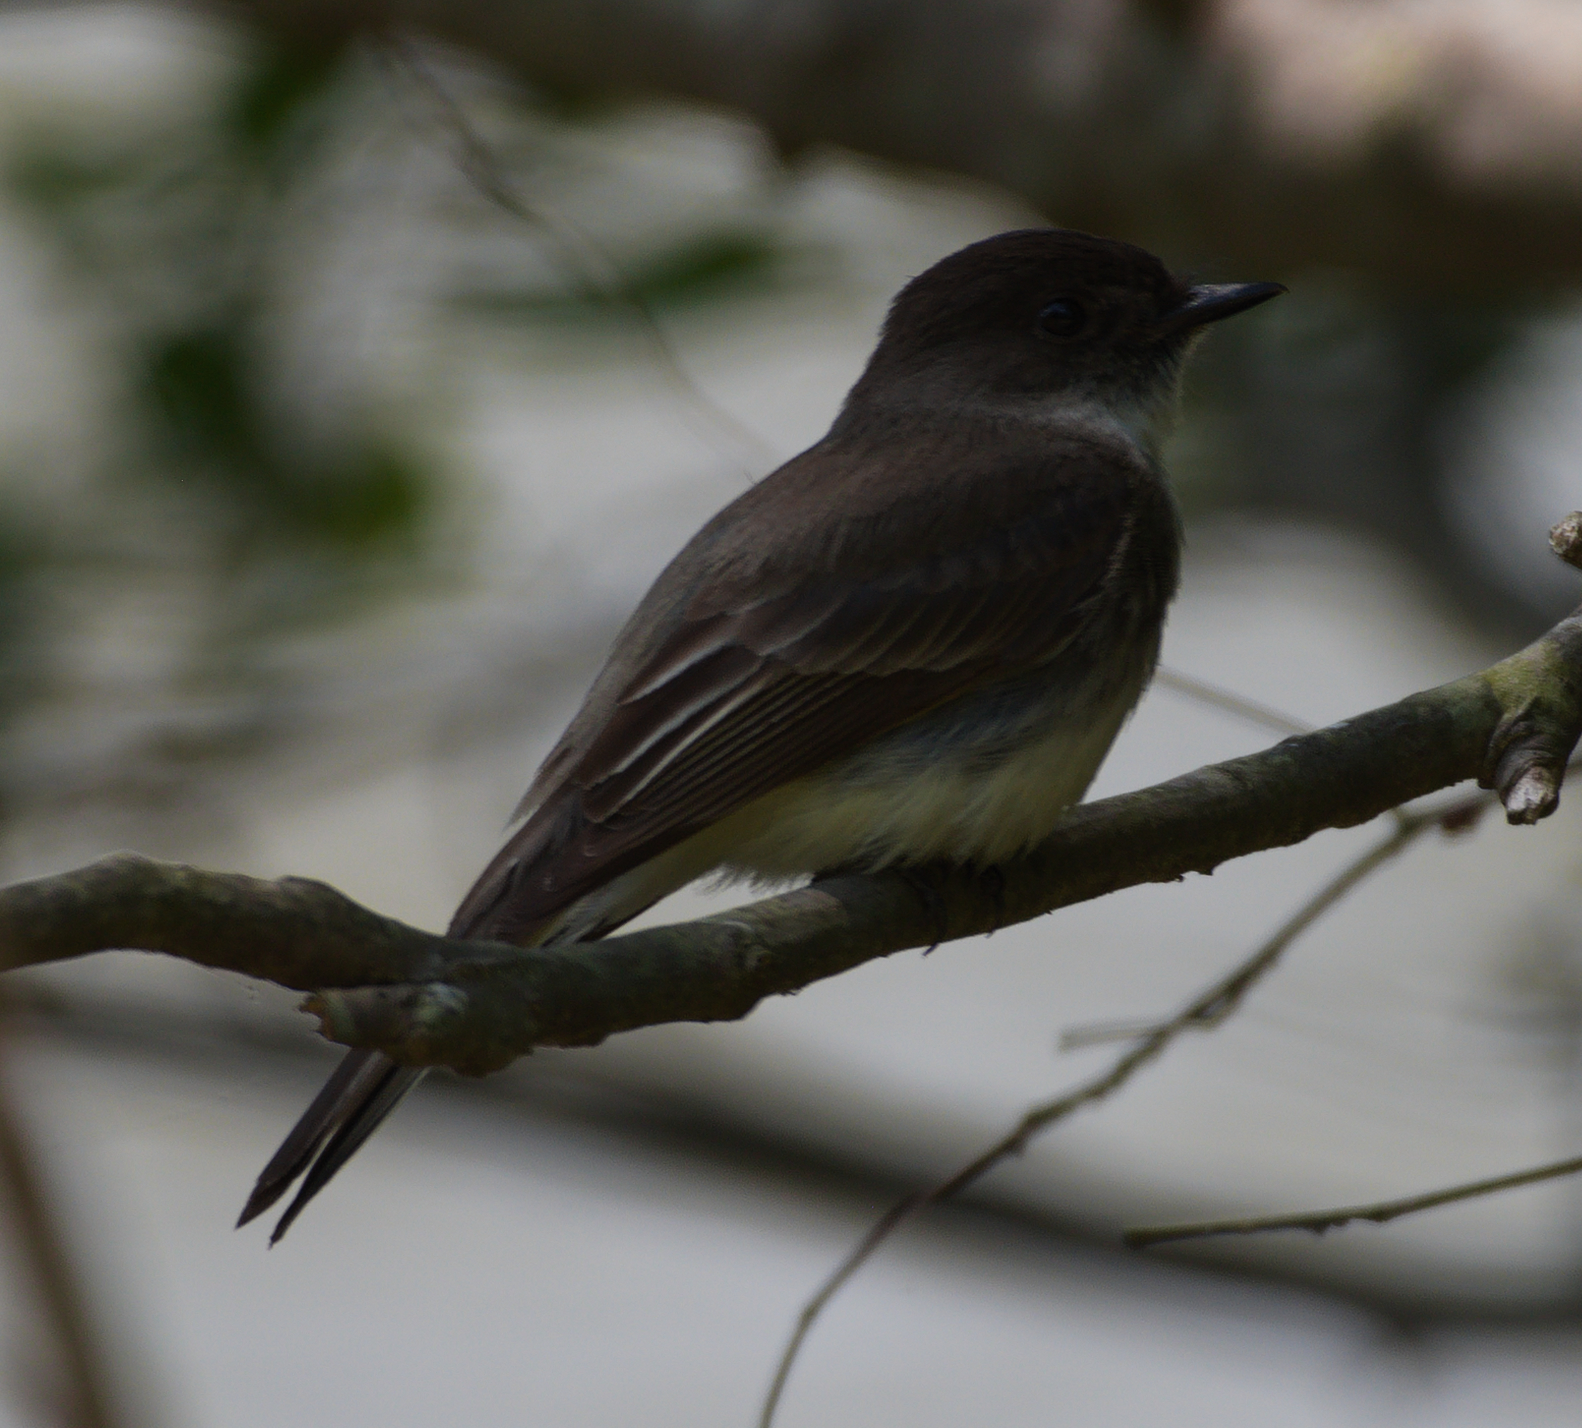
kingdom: Animalia
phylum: Chordata
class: Aves
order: Passeriformes
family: Tyrannidae
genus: Sayornis
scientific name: Sayornis phoebe
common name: Eastern phoebe
